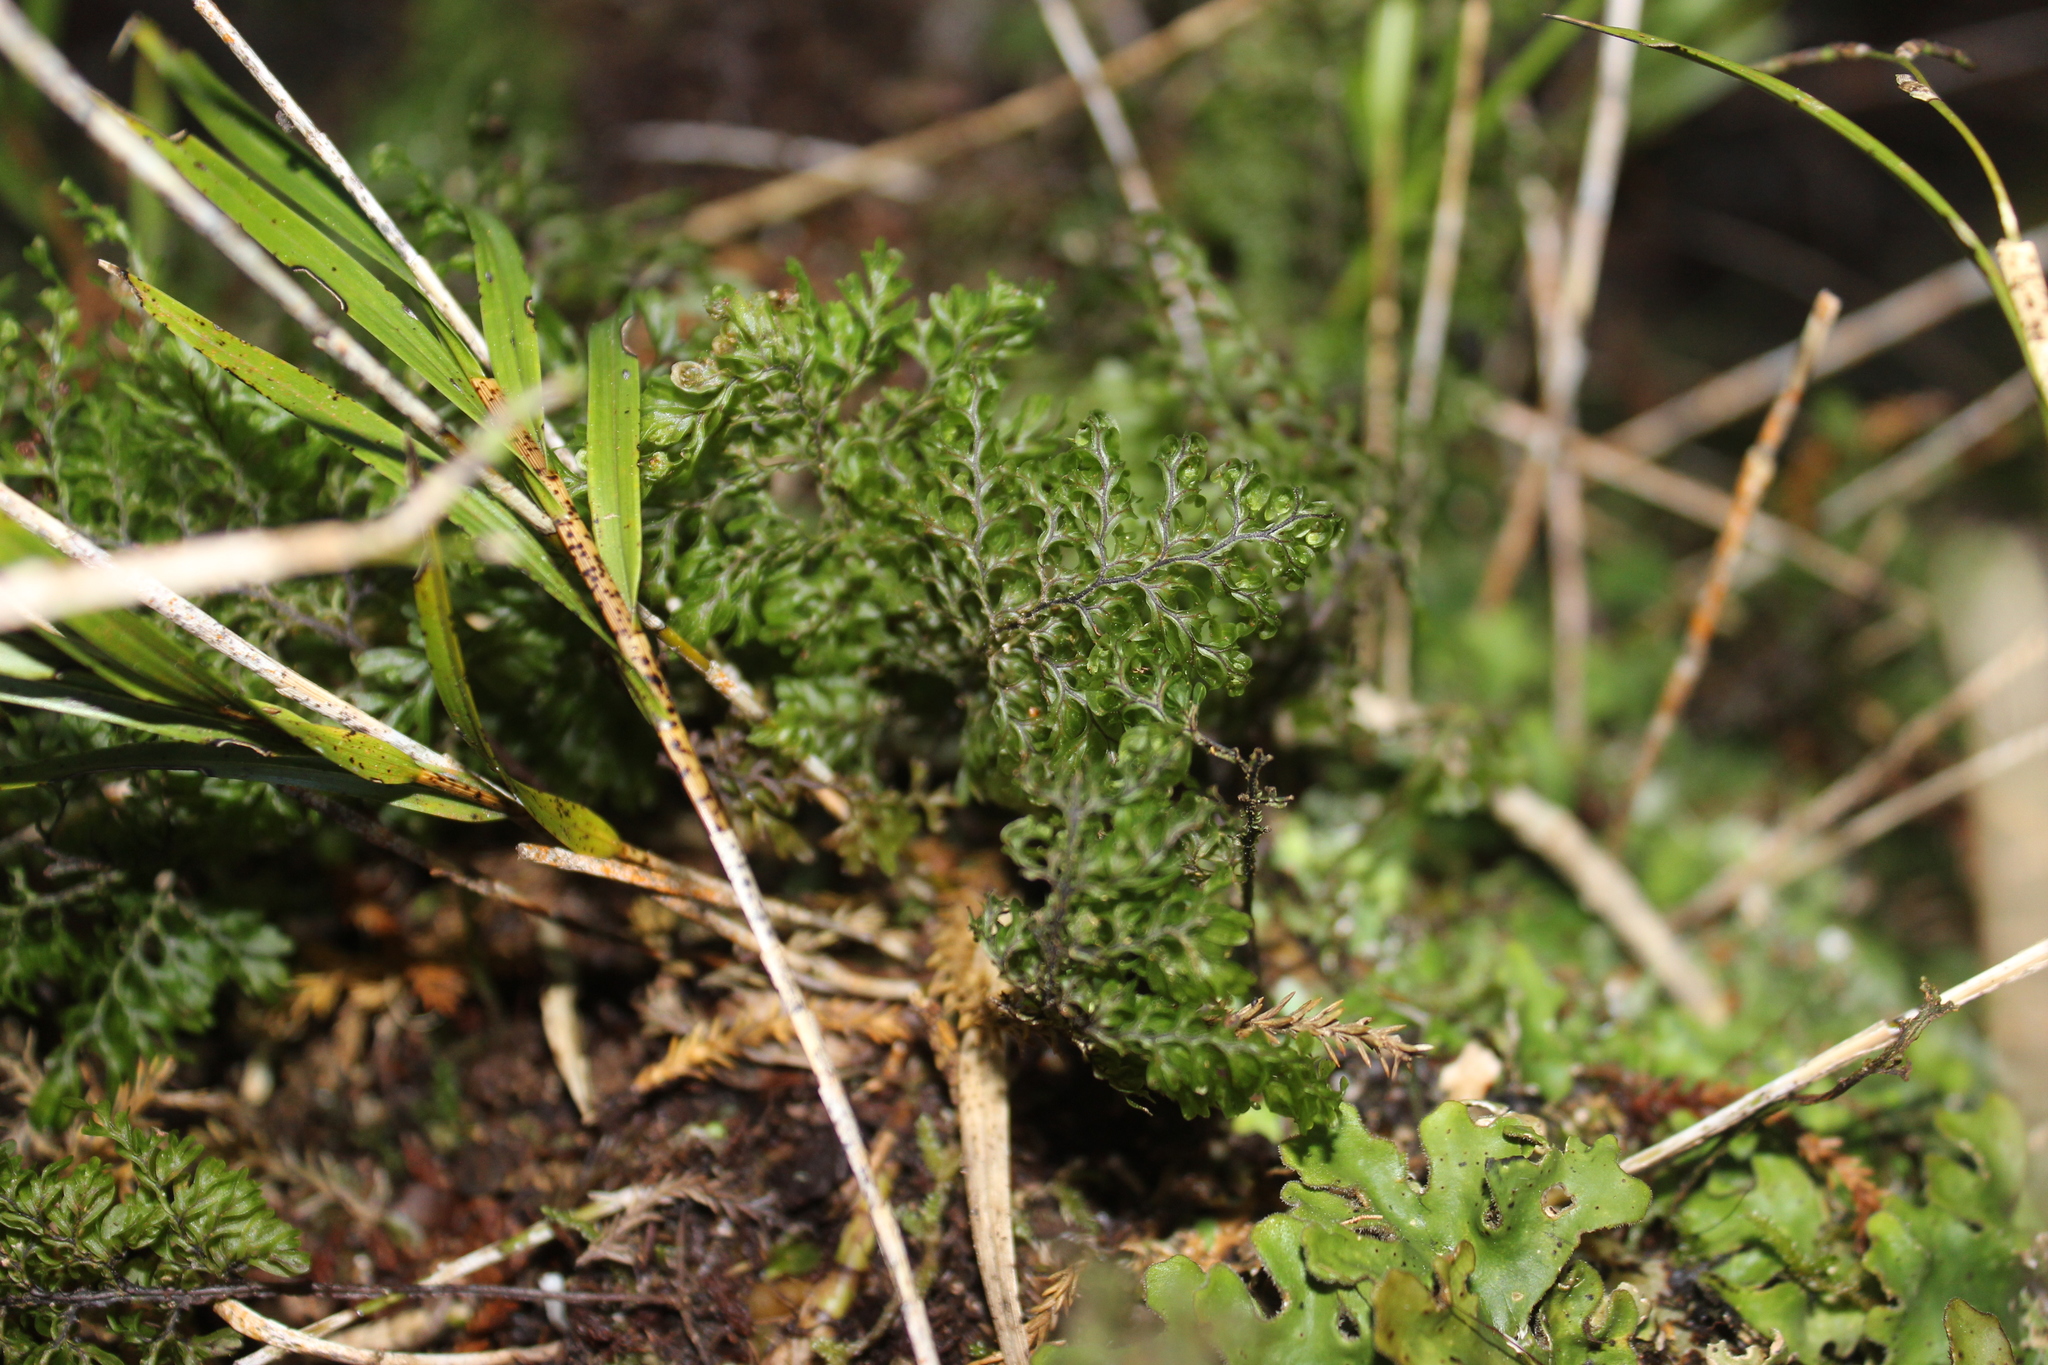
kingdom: Plantae
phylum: Tracheophyta
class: Polypodiopsida
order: Hymenophyllales
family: Hymenophyllaceae
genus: Hymenophyllum
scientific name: Hymenophyllum sanguinolentum
